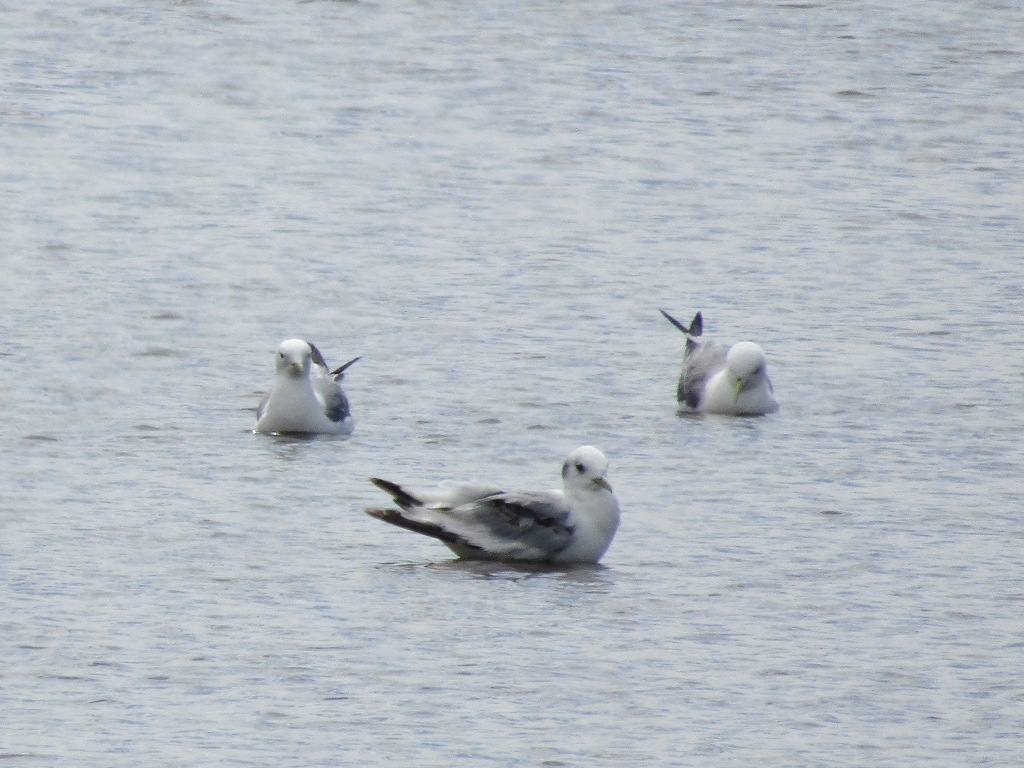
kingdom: Animalia
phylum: Chordata
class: Aves
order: Charadriiformes
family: Laridae
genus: Rissa
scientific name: Rissa tridactyla
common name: Black-legged kittiwake
